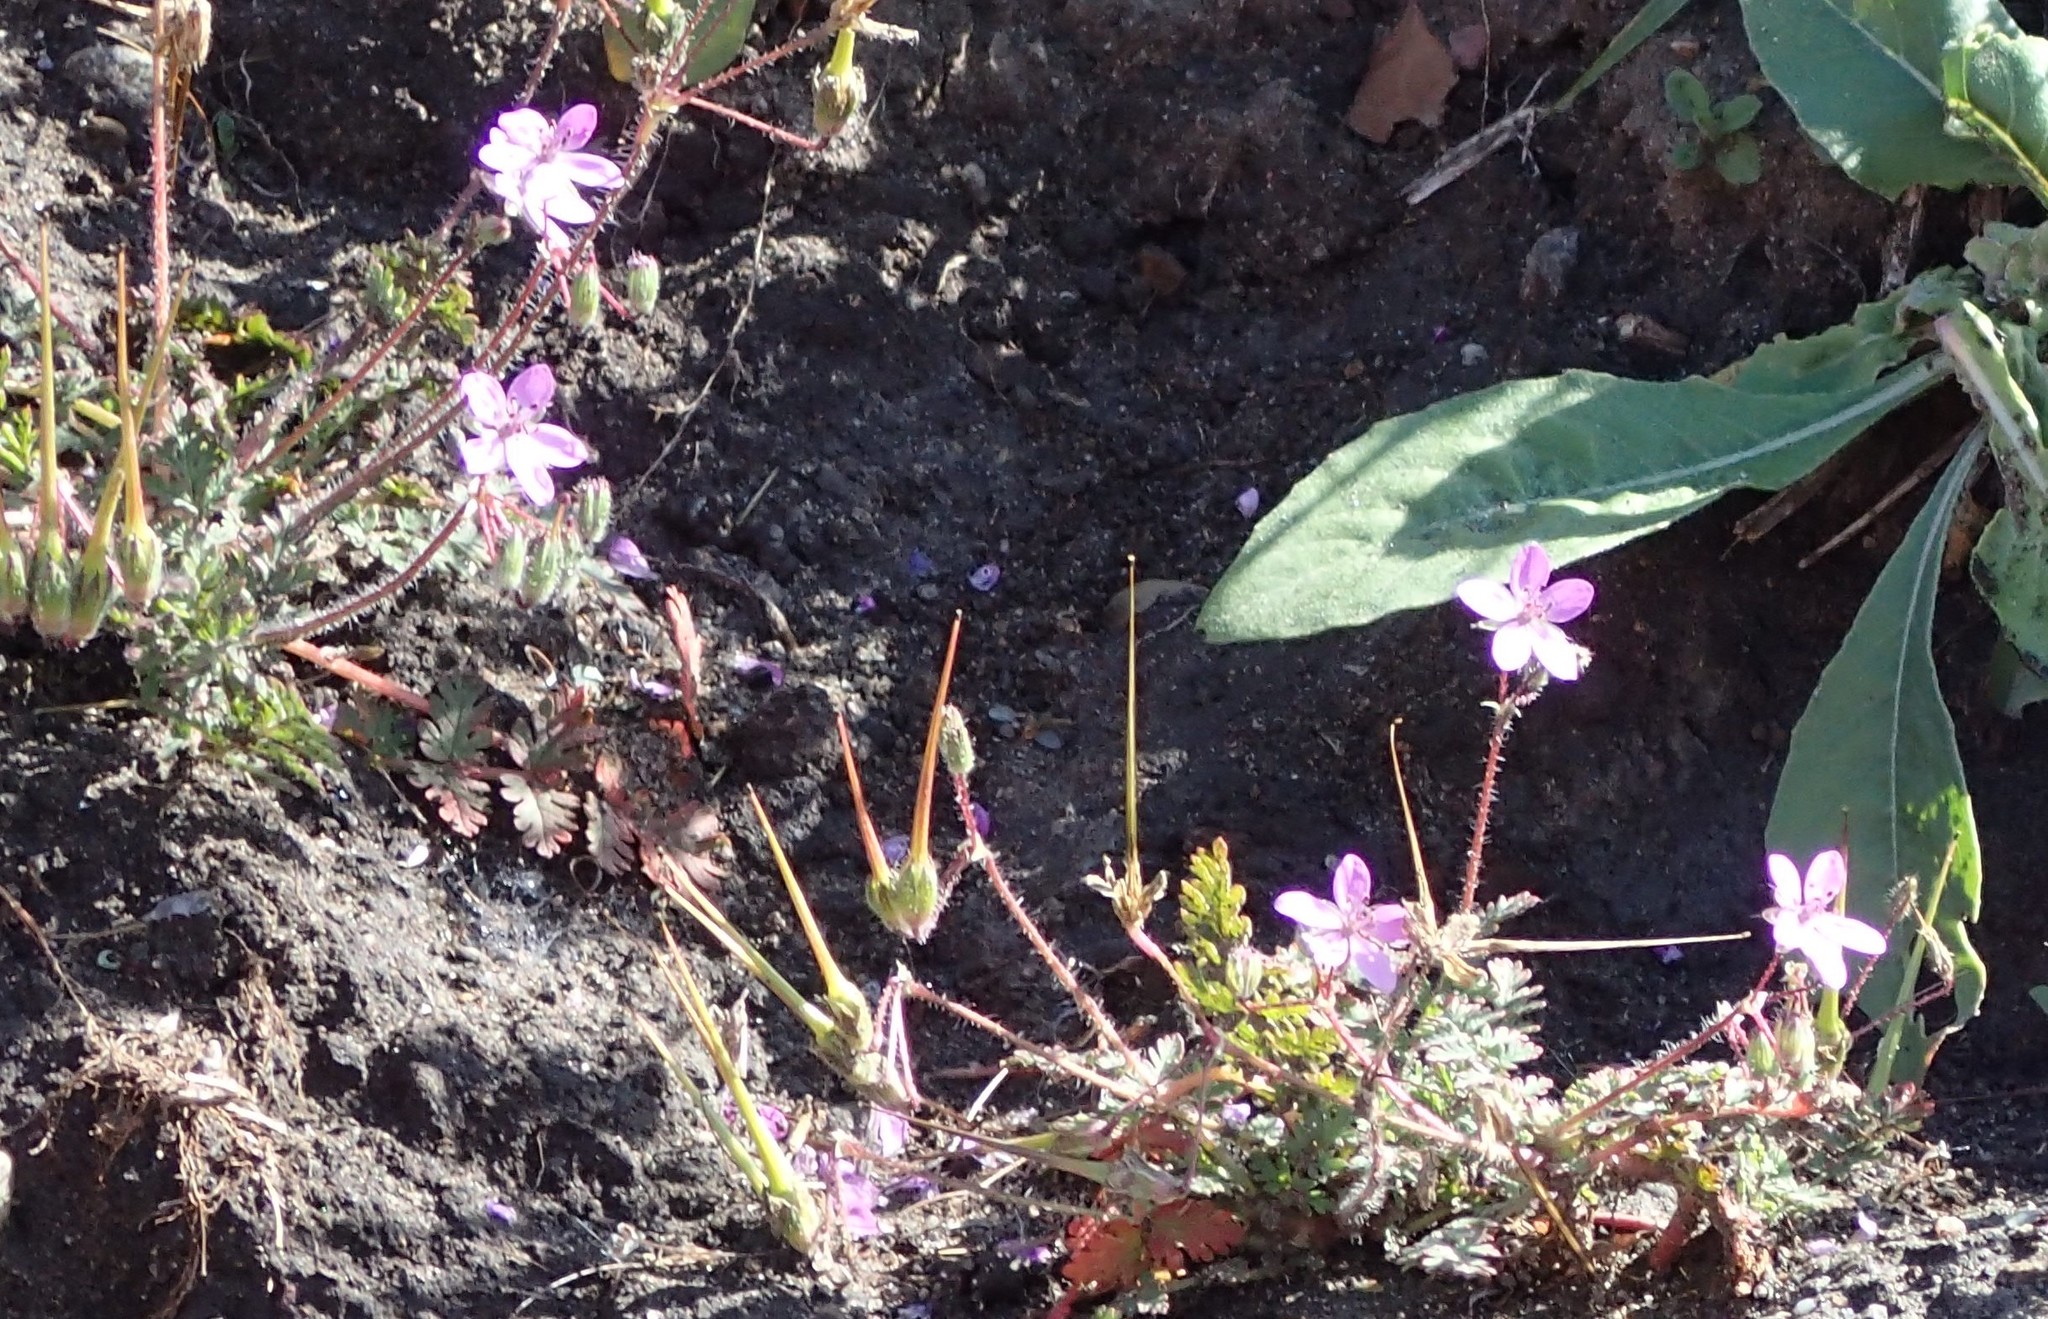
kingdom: Plantae
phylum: Tracheophyta
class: Magnoliopsida
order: Geraniales
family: Geraniaceae
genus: Erodium
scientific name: Erodium cicutarium
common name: Common stork's-bill
